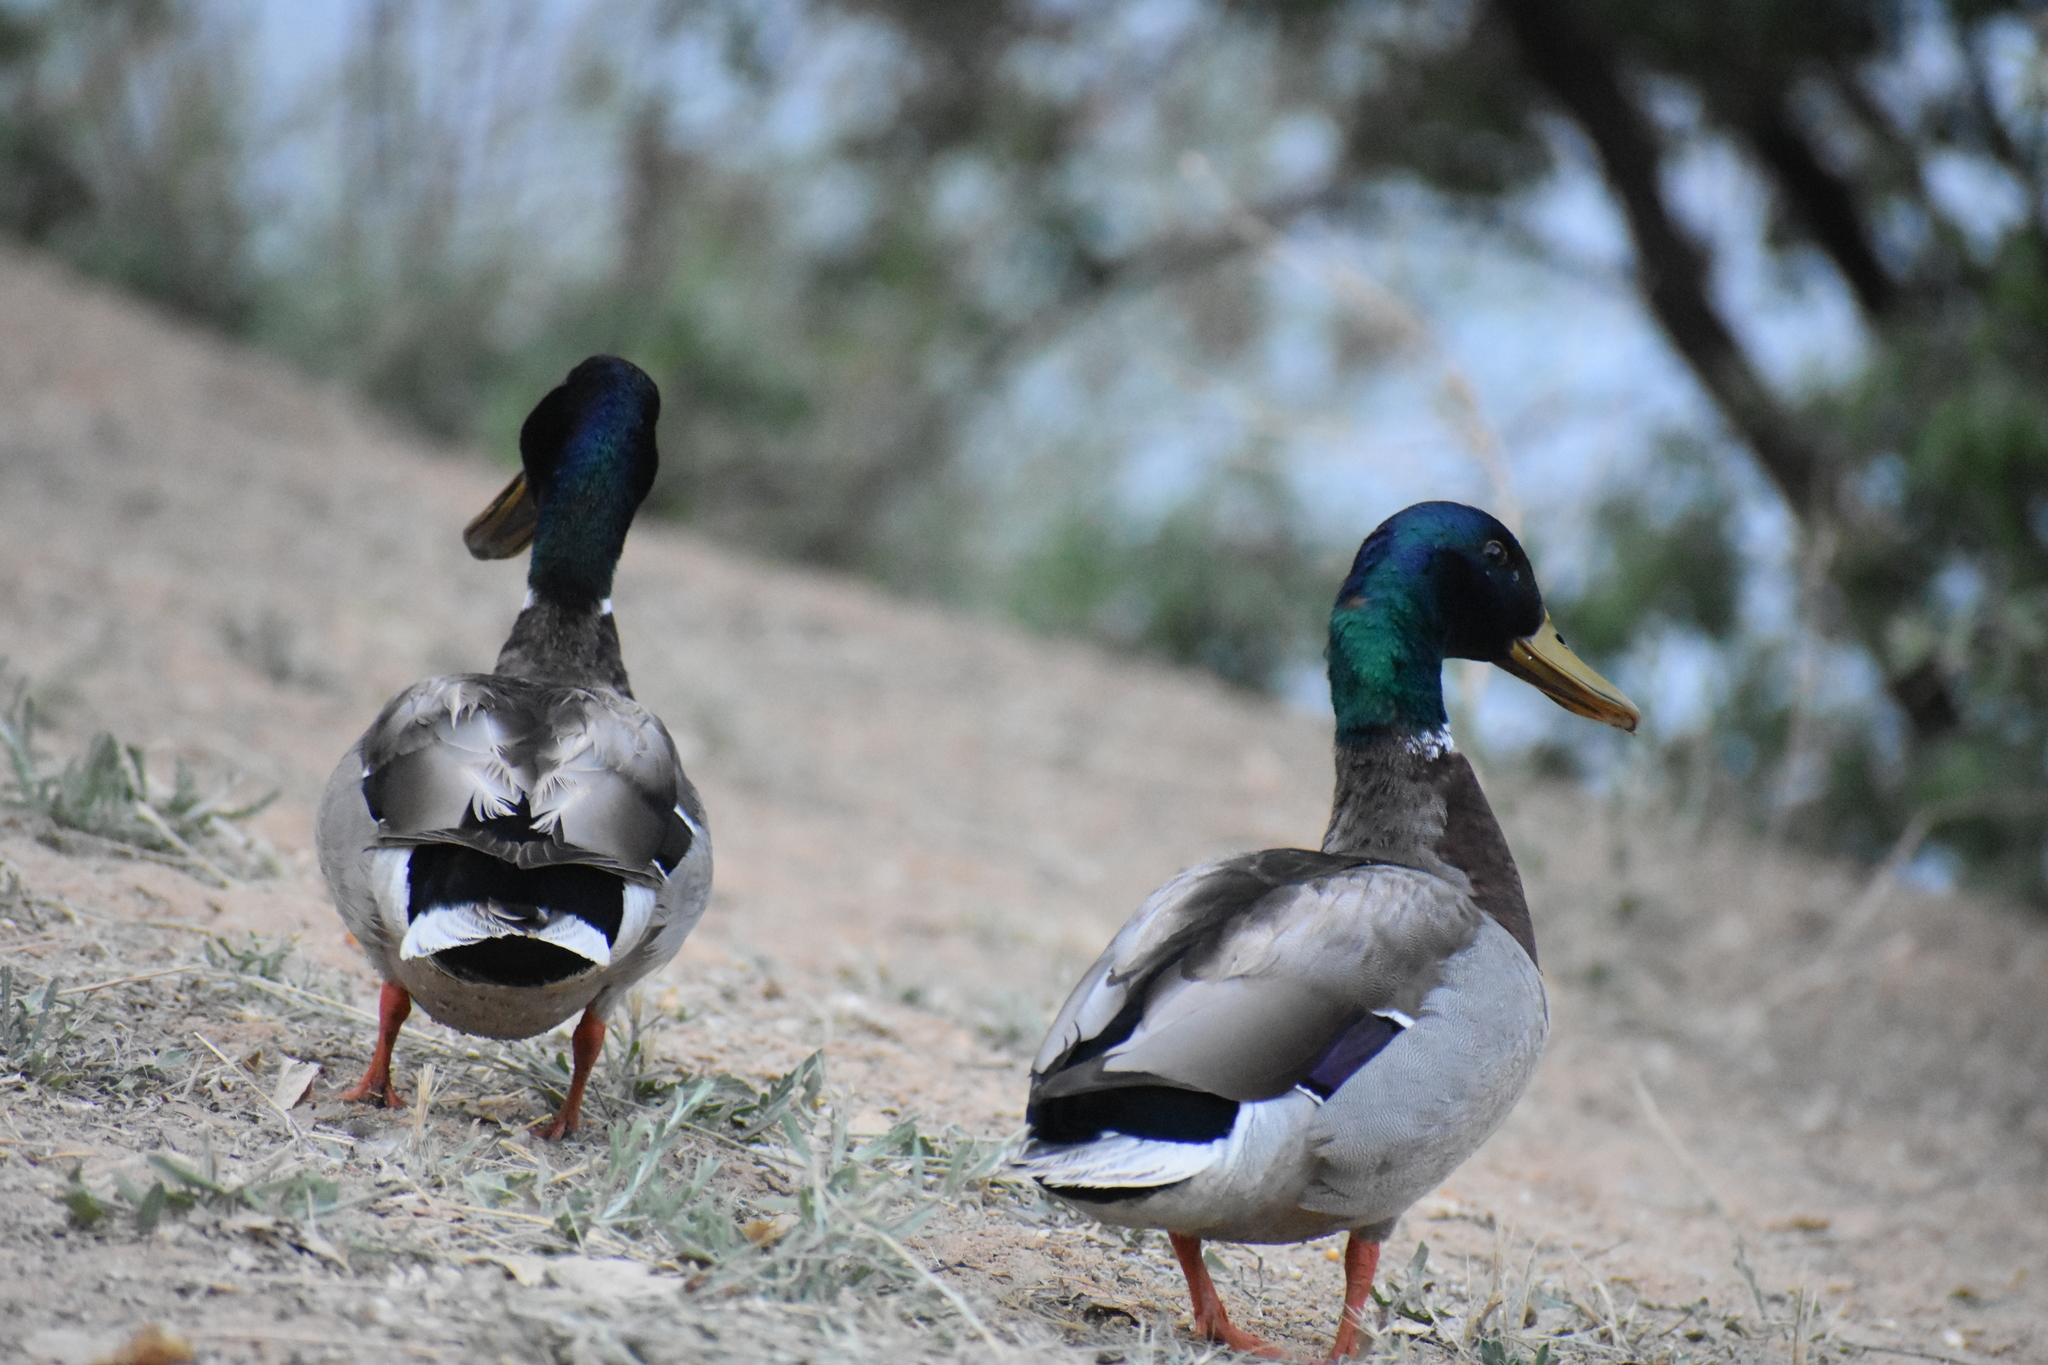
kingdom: Animalia
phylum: Chordata
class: Aves
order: Anseriformes
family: Anatidae
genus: Anas
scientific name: Anas platyrhynchos
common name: Mallard
